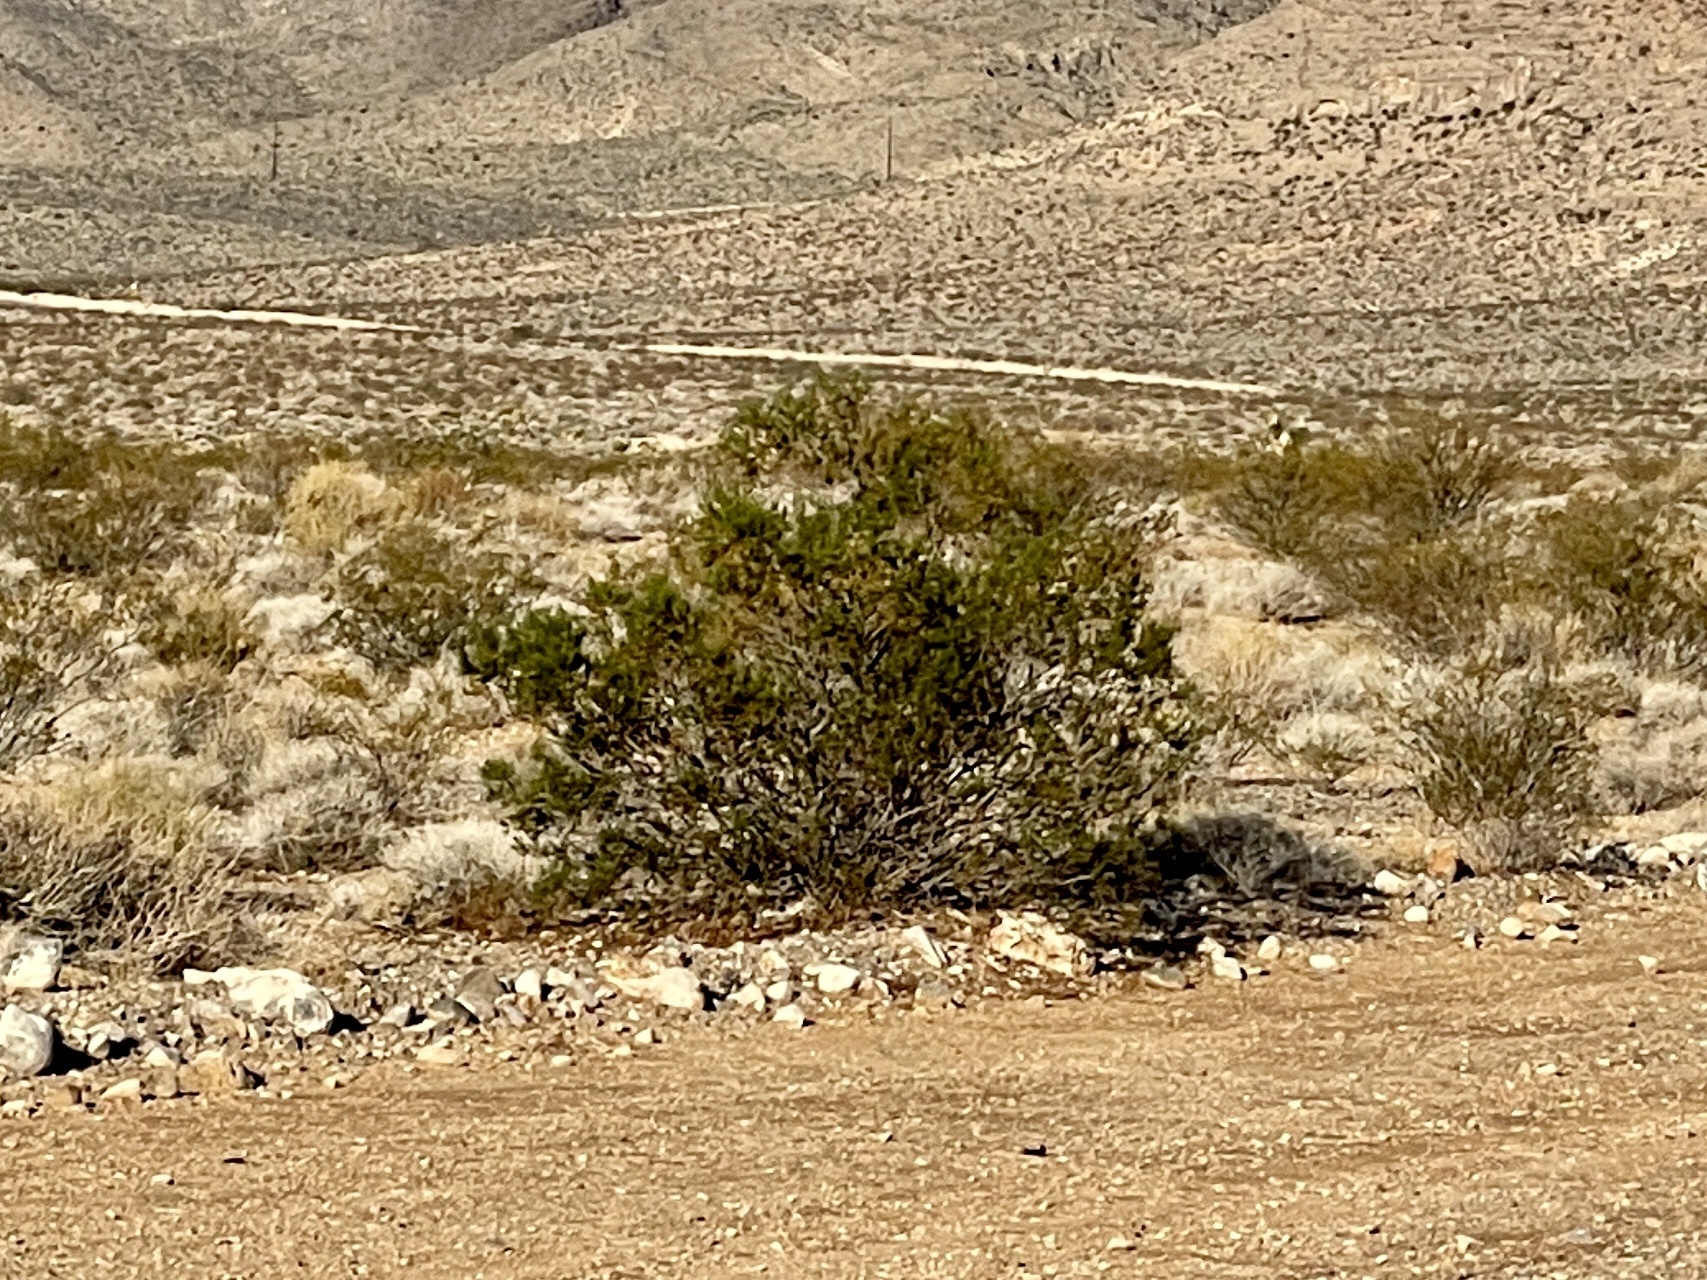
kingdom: Plantae
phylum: Tracheophyta
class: Magnoliopsida
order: Zygophyllales
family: Zygophyllaceae
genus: Larrea
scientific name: Larrea tridentata
